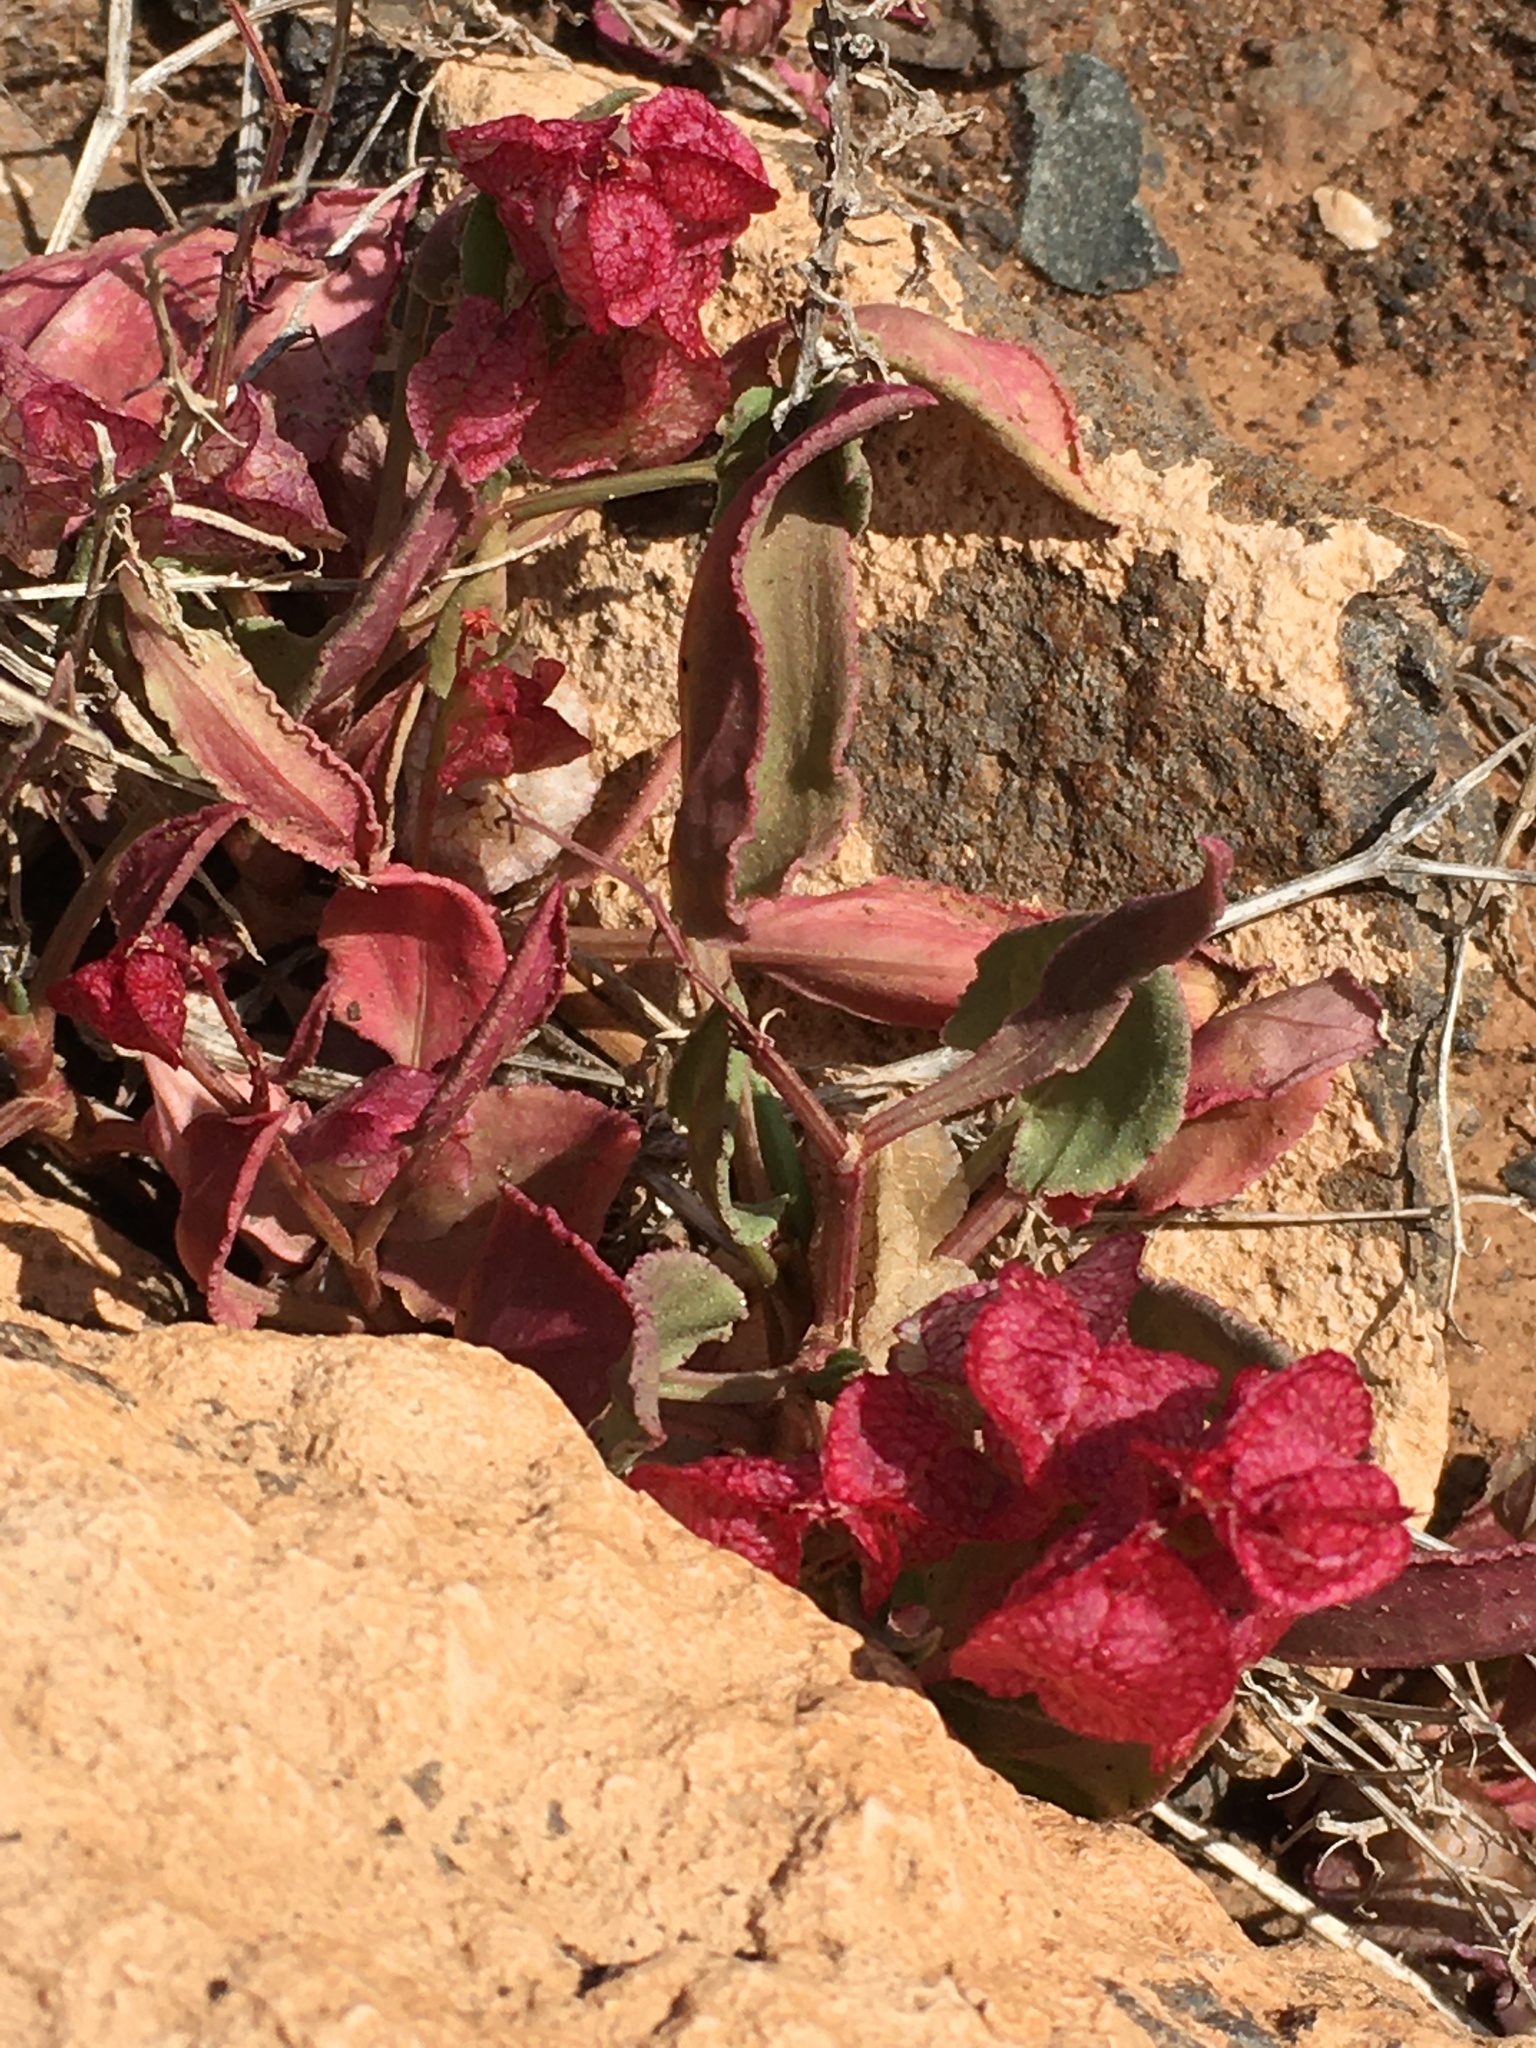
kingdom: Plantae
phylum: Tracheophyta
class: Magnoliopsida
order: Caryophyllales
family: Polygonaceae
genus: Rumex
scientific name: Rumex vesicarius
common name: Bladder dock
